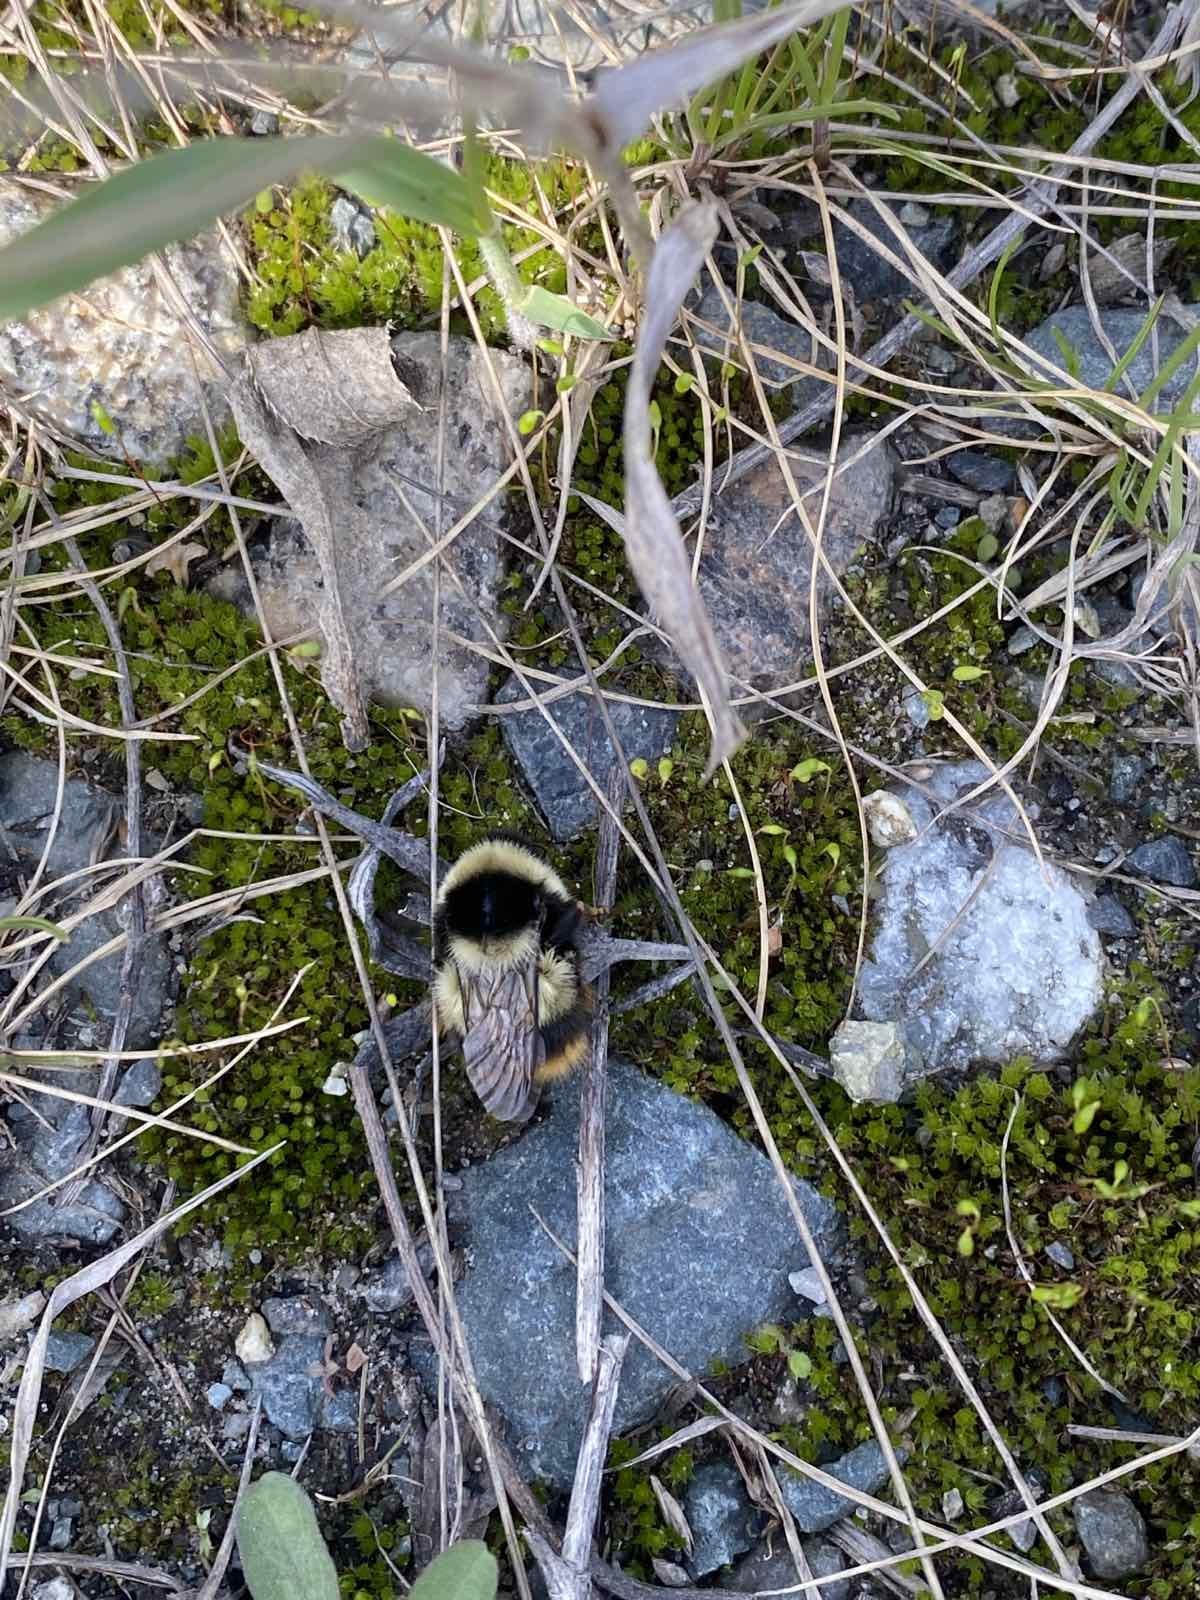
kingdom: Animalia
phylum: Arthropoda
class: Insecta
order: Hymenoptera
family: Apidae
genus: Bombus
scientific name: Bombus sichelii
